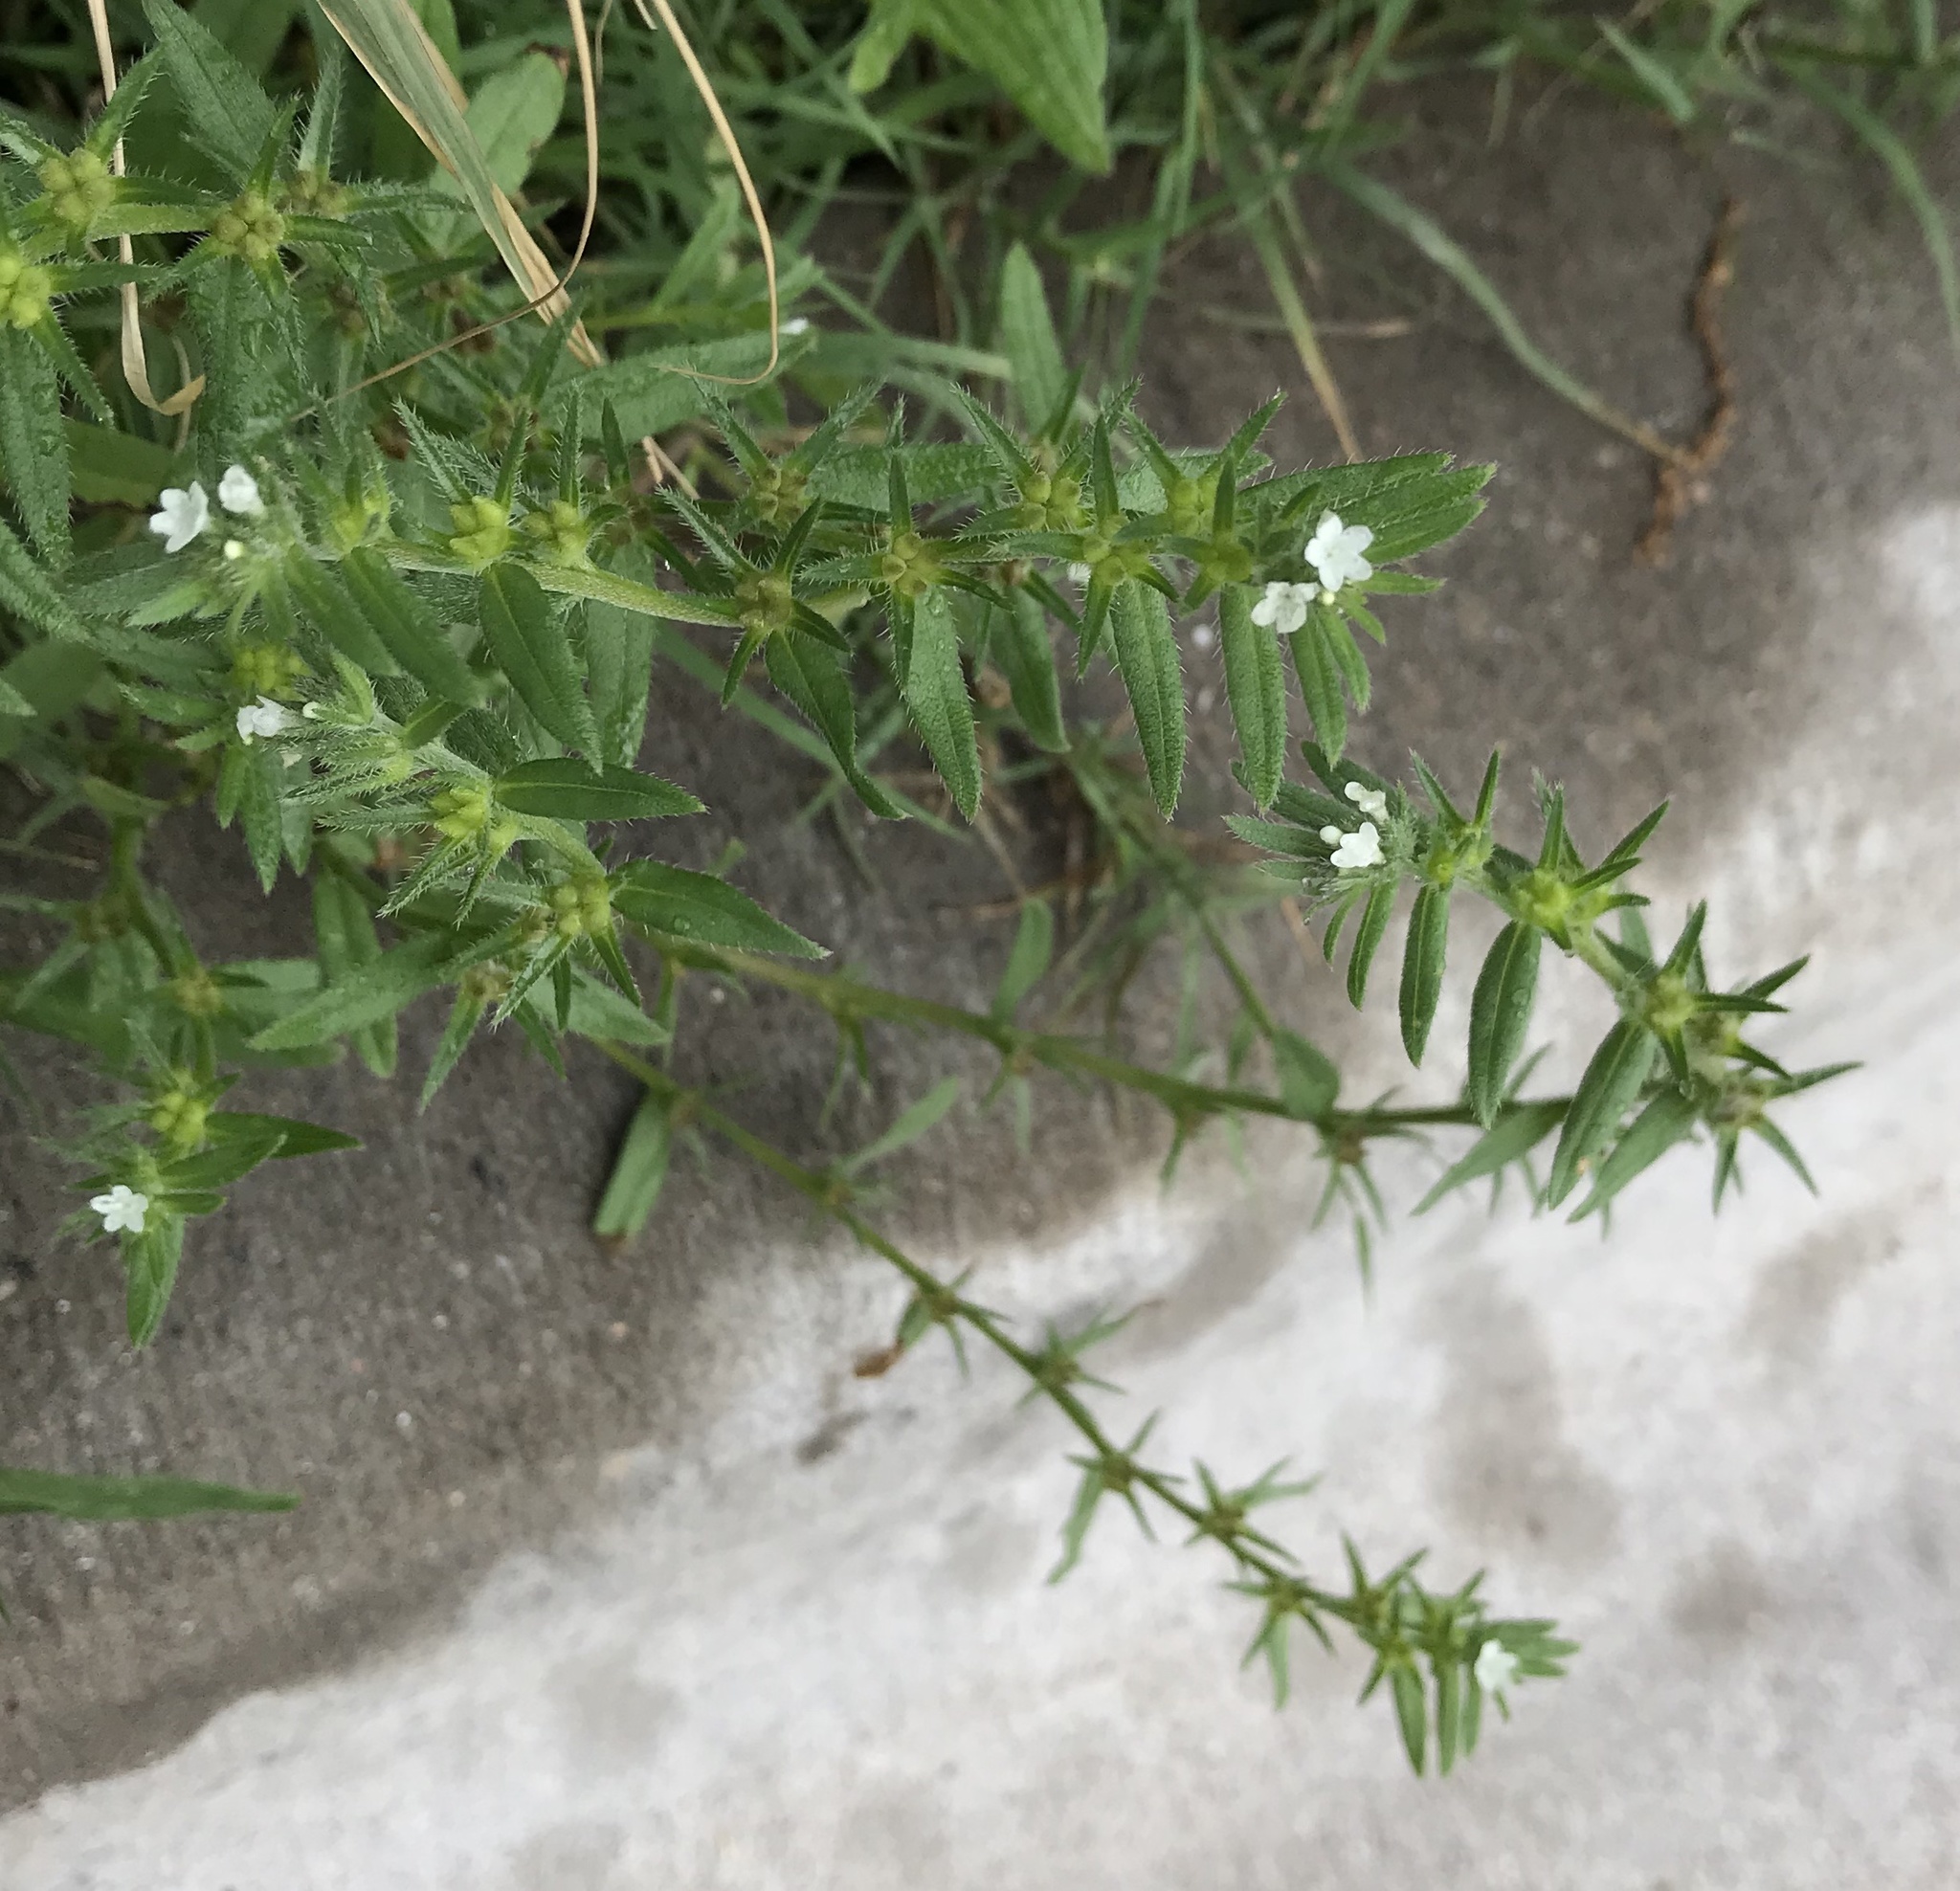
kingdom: Plantae
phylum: Tracheophyta
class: Magnoliopsida
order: Boraginales
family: Boraginaceae
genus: Buglossoides
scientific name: Buglossoides arvensis
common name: Corn gromwell
